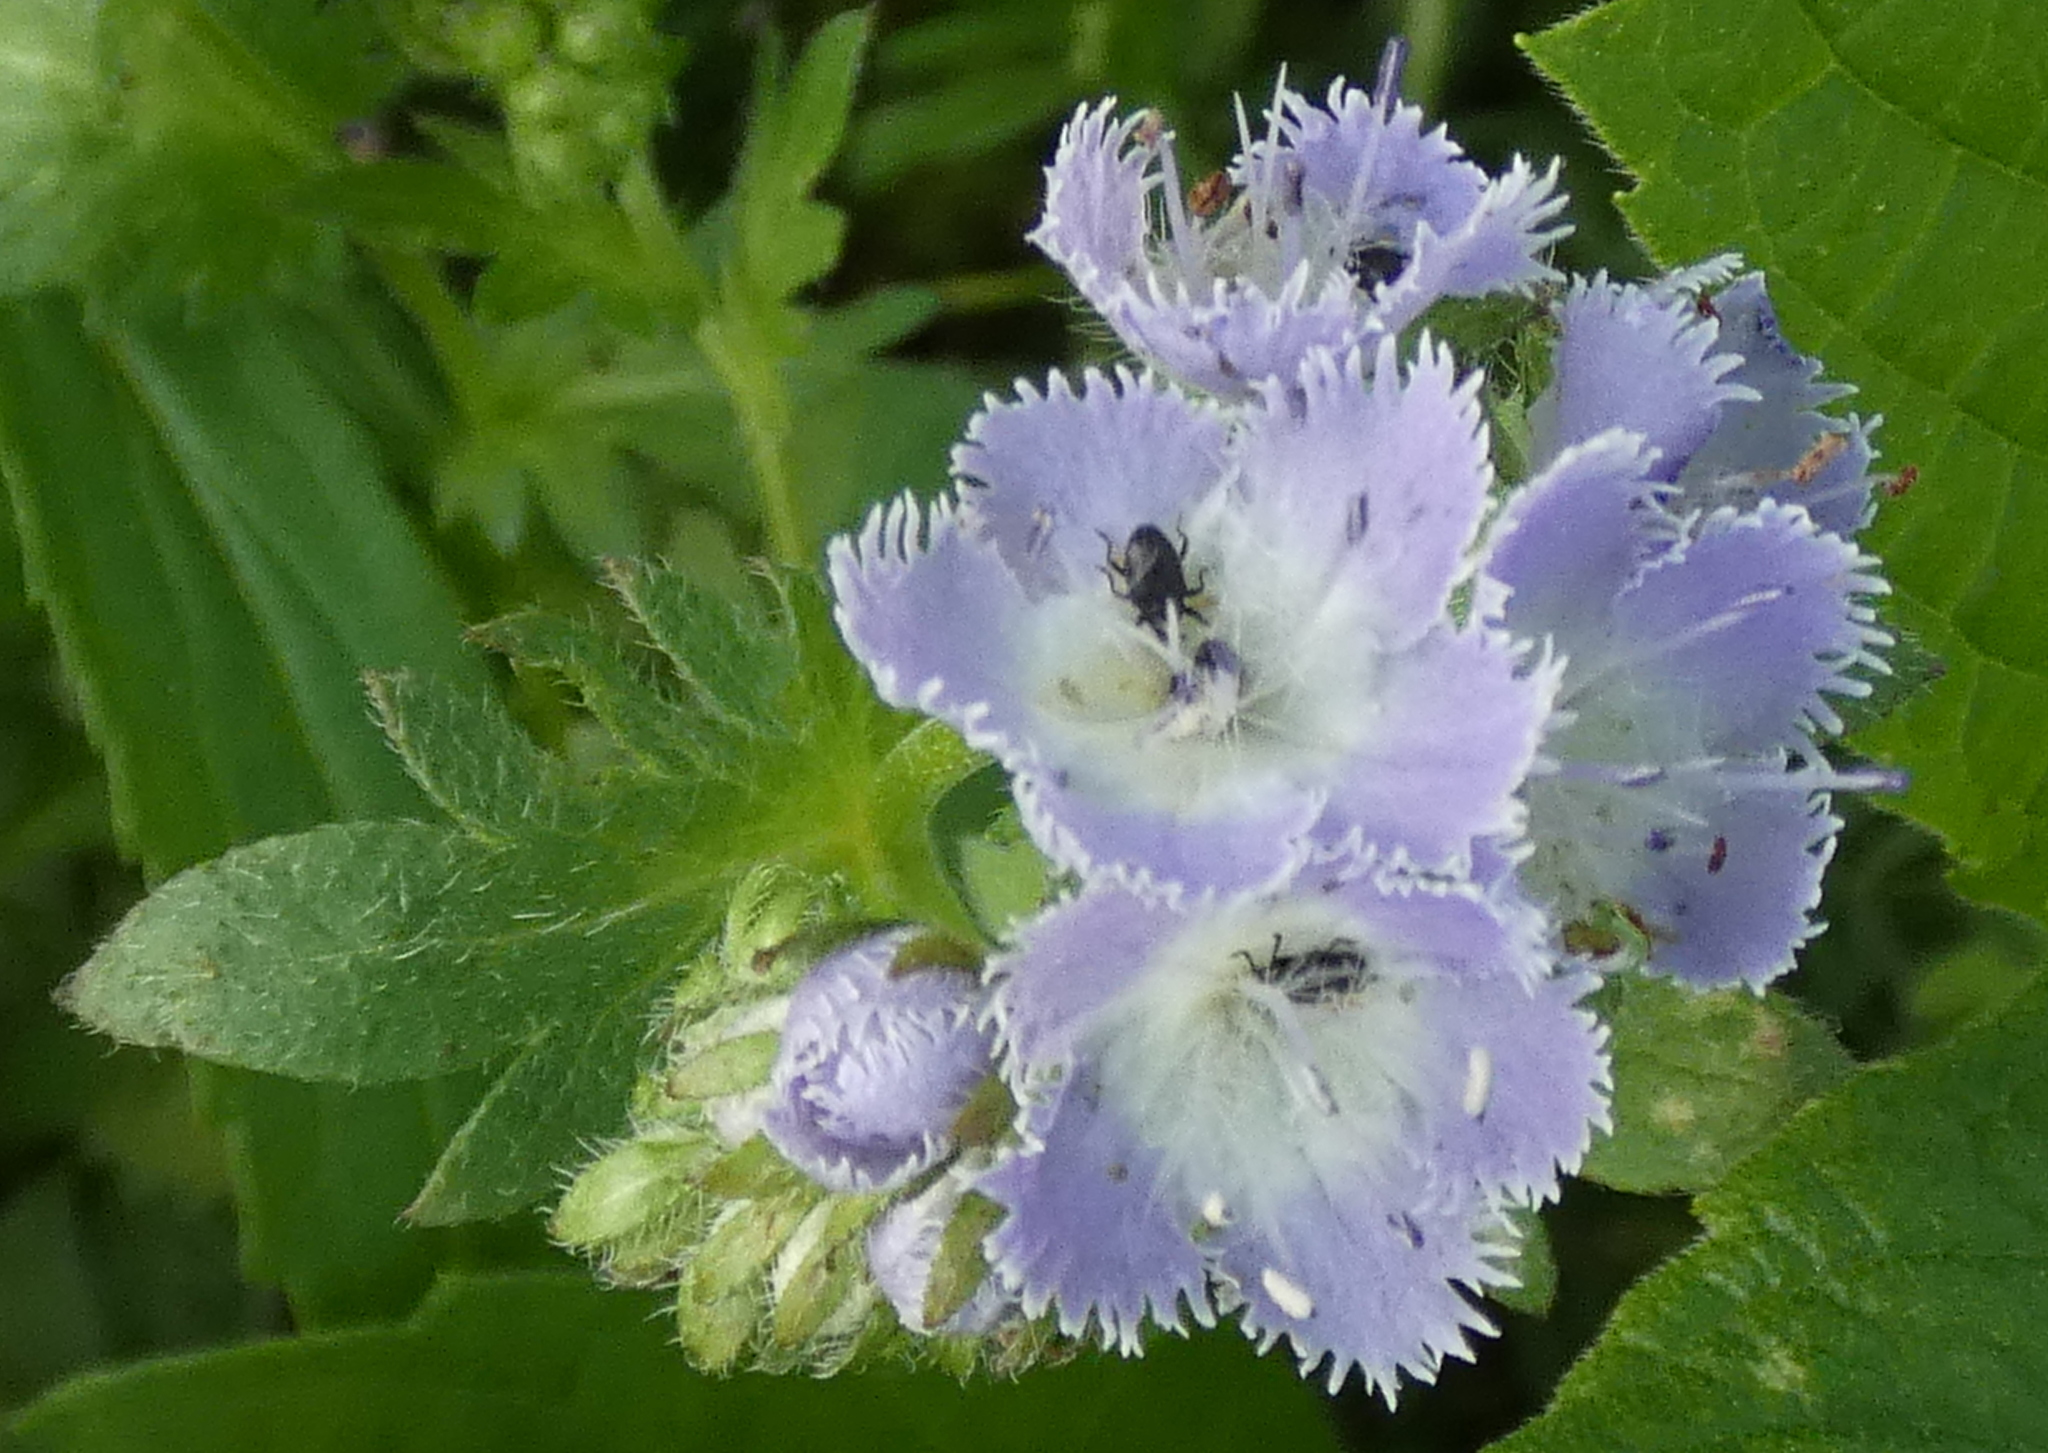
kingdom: Plantae
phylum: Tracheophyta
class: Magnoliopsida
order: Boraginales
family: Hydrophyllaceae
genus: Phacelia
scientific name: Phacelia purshii
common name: Miami-mist
